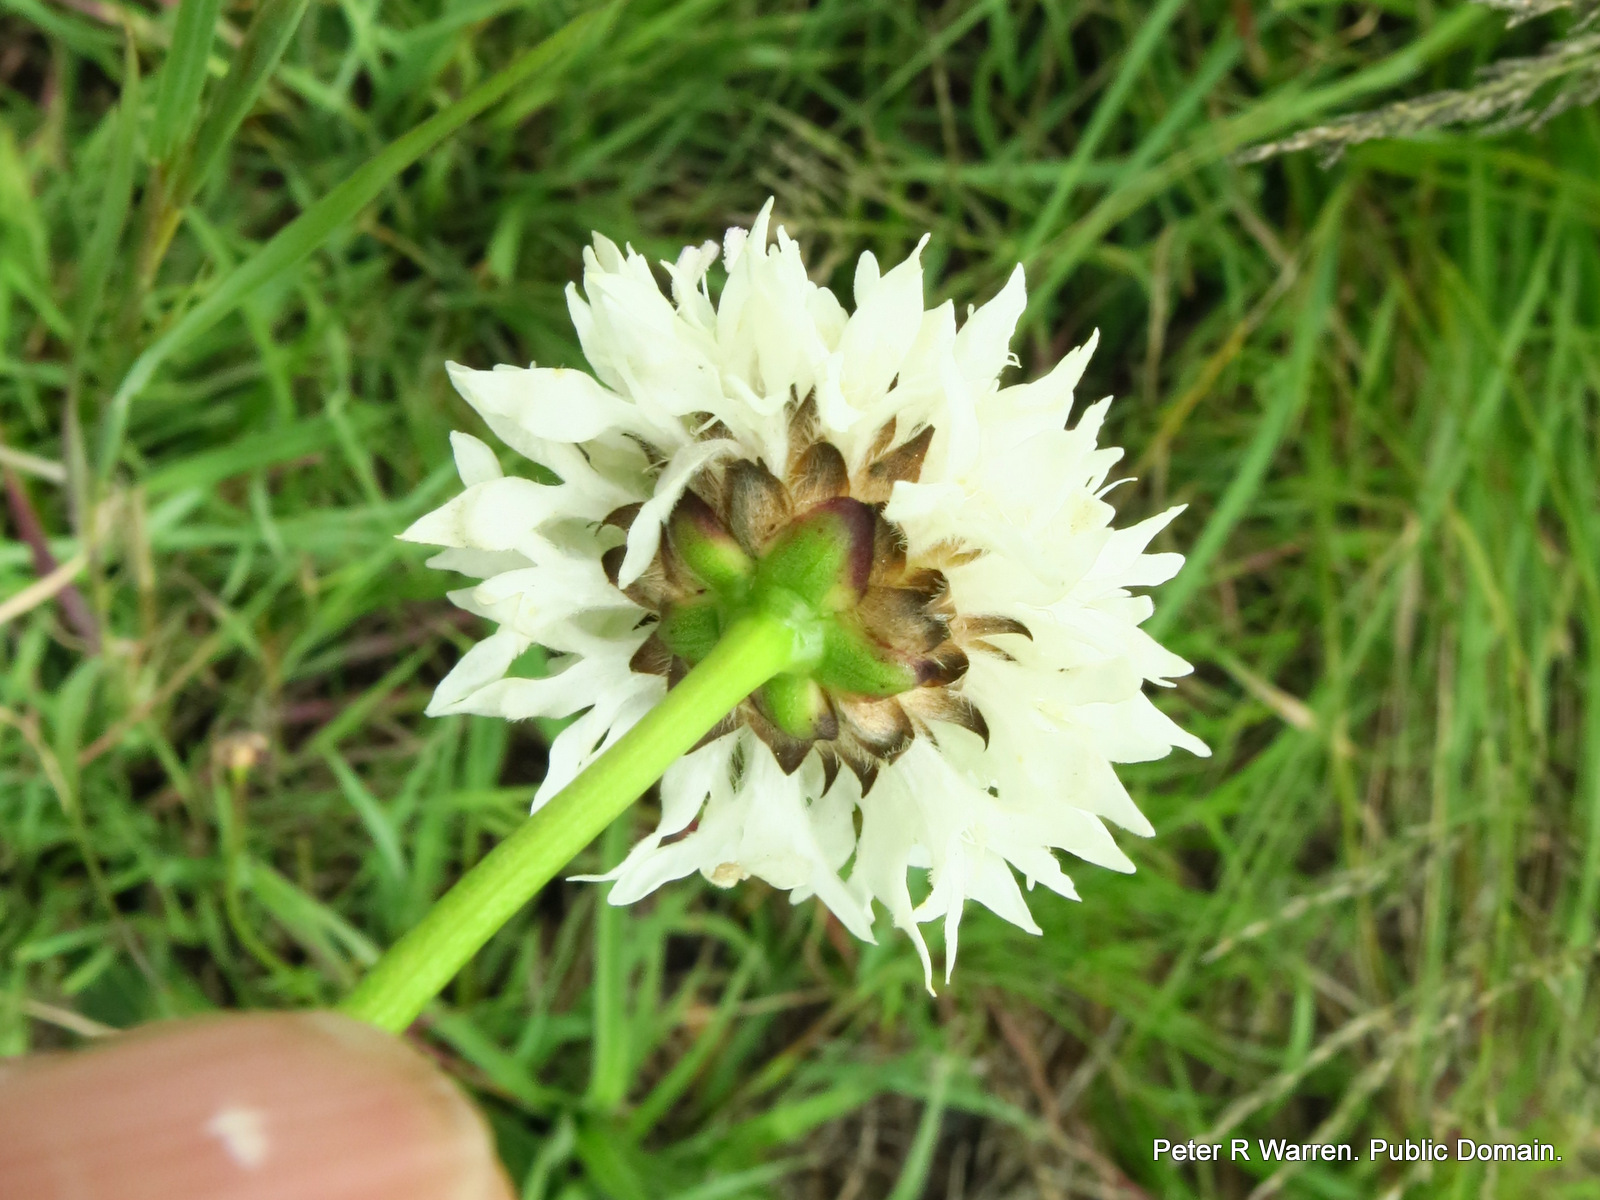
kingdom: Plantae
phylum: Tracheophyta
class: Magnoliopsida
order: Dipsacales
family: Caprifoliaceae
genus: Cephalaria
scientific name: Cephalaria oblongifolia
